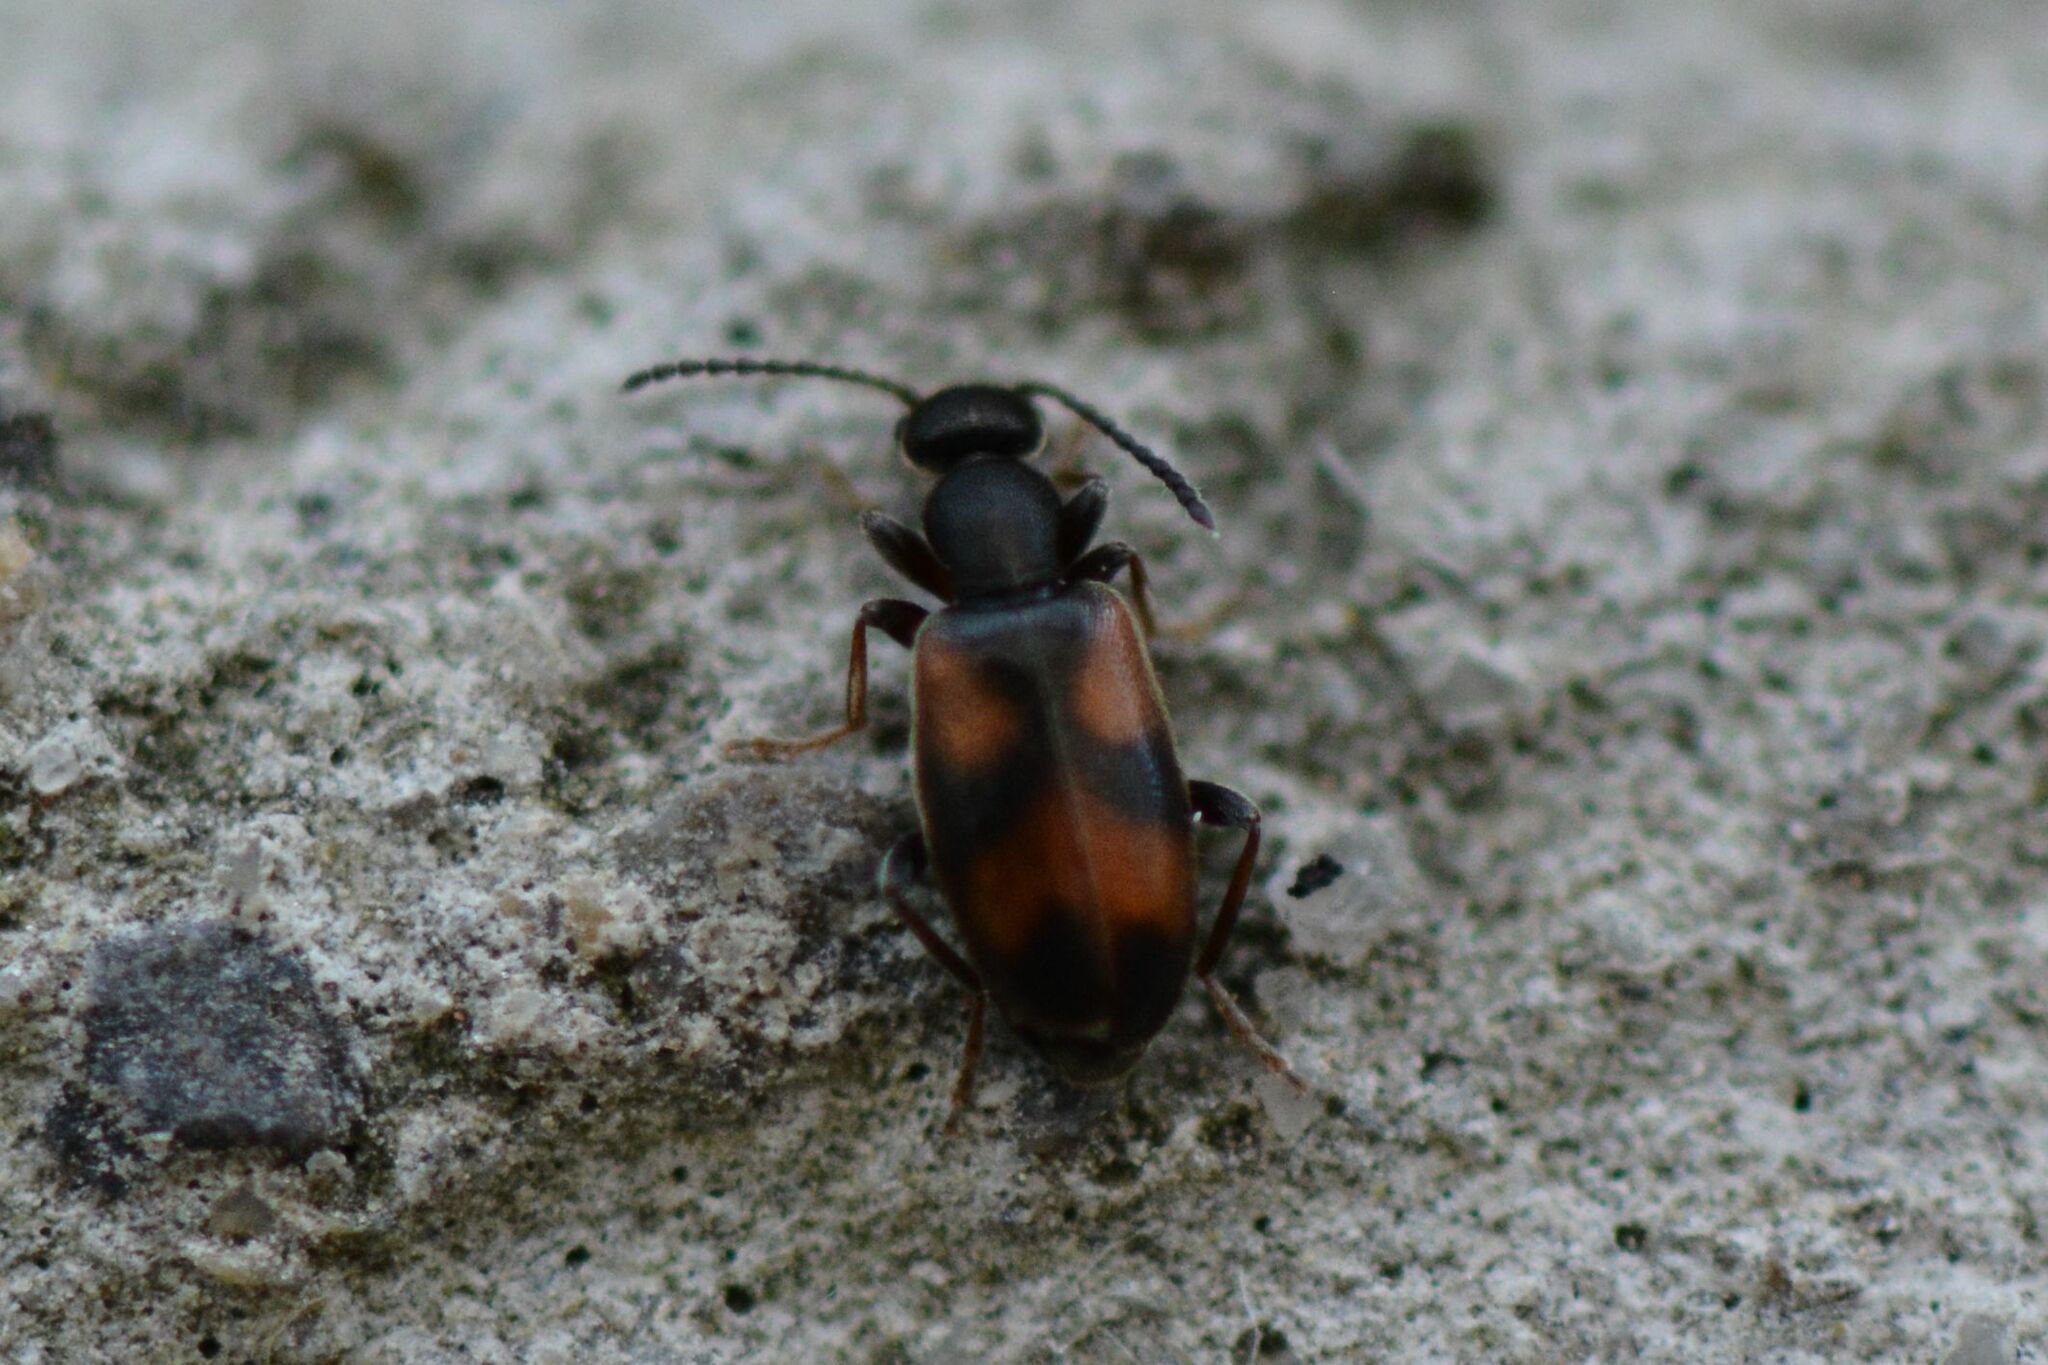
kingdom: Animalia
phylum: Arthropoda
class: Insecta
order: Coleoptera
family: Anthicidae
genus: Anthicus
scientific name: Anthicus antherinus
